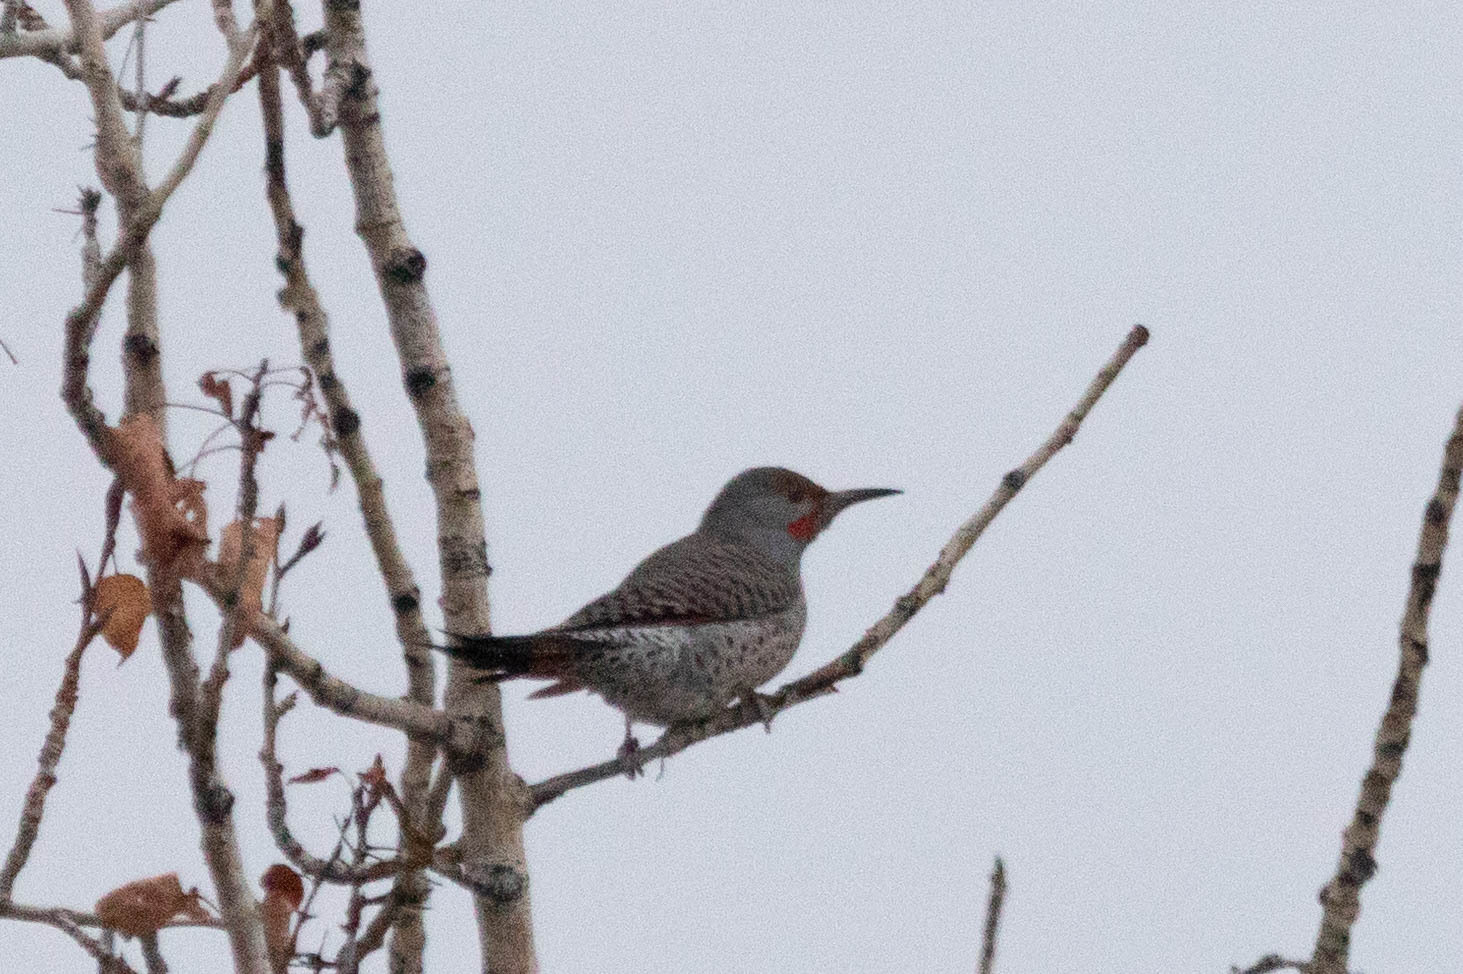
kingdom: Animalia
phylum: Chordata
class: Aves
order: Piciformes
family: Picidae
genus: Colaptes
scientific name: Colaptes auratus
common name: Northern flicker
